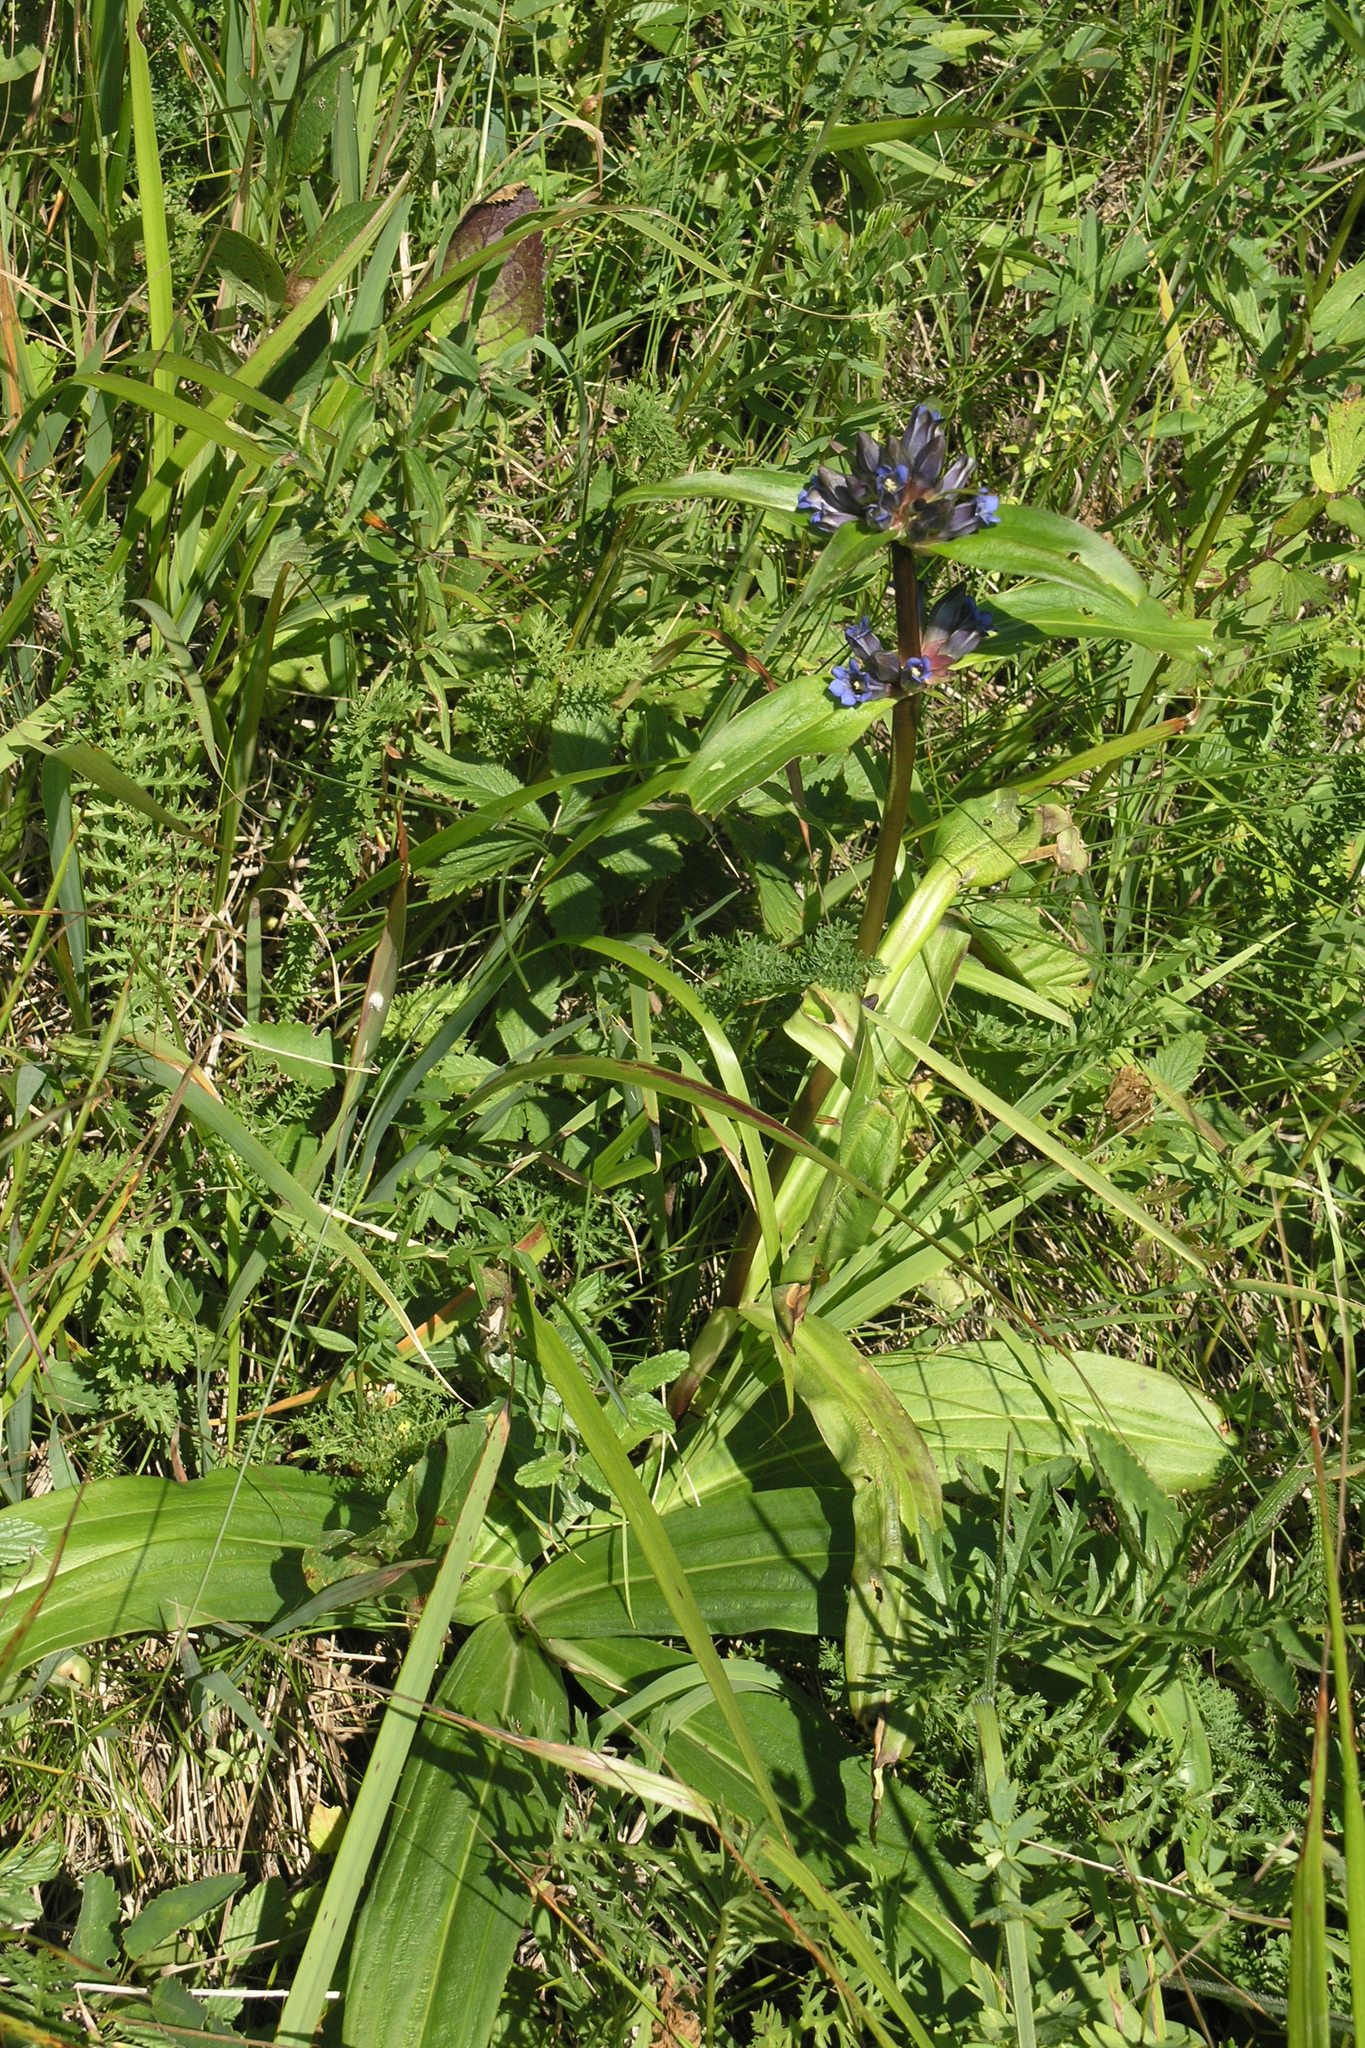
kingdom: Plantae
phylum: Tracheophyta
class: Magnoliopsida
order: Gentianales
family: Gentianaceae
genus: Gentiana
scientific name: Gentiana macrophylla
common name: Large-leaf gentian
